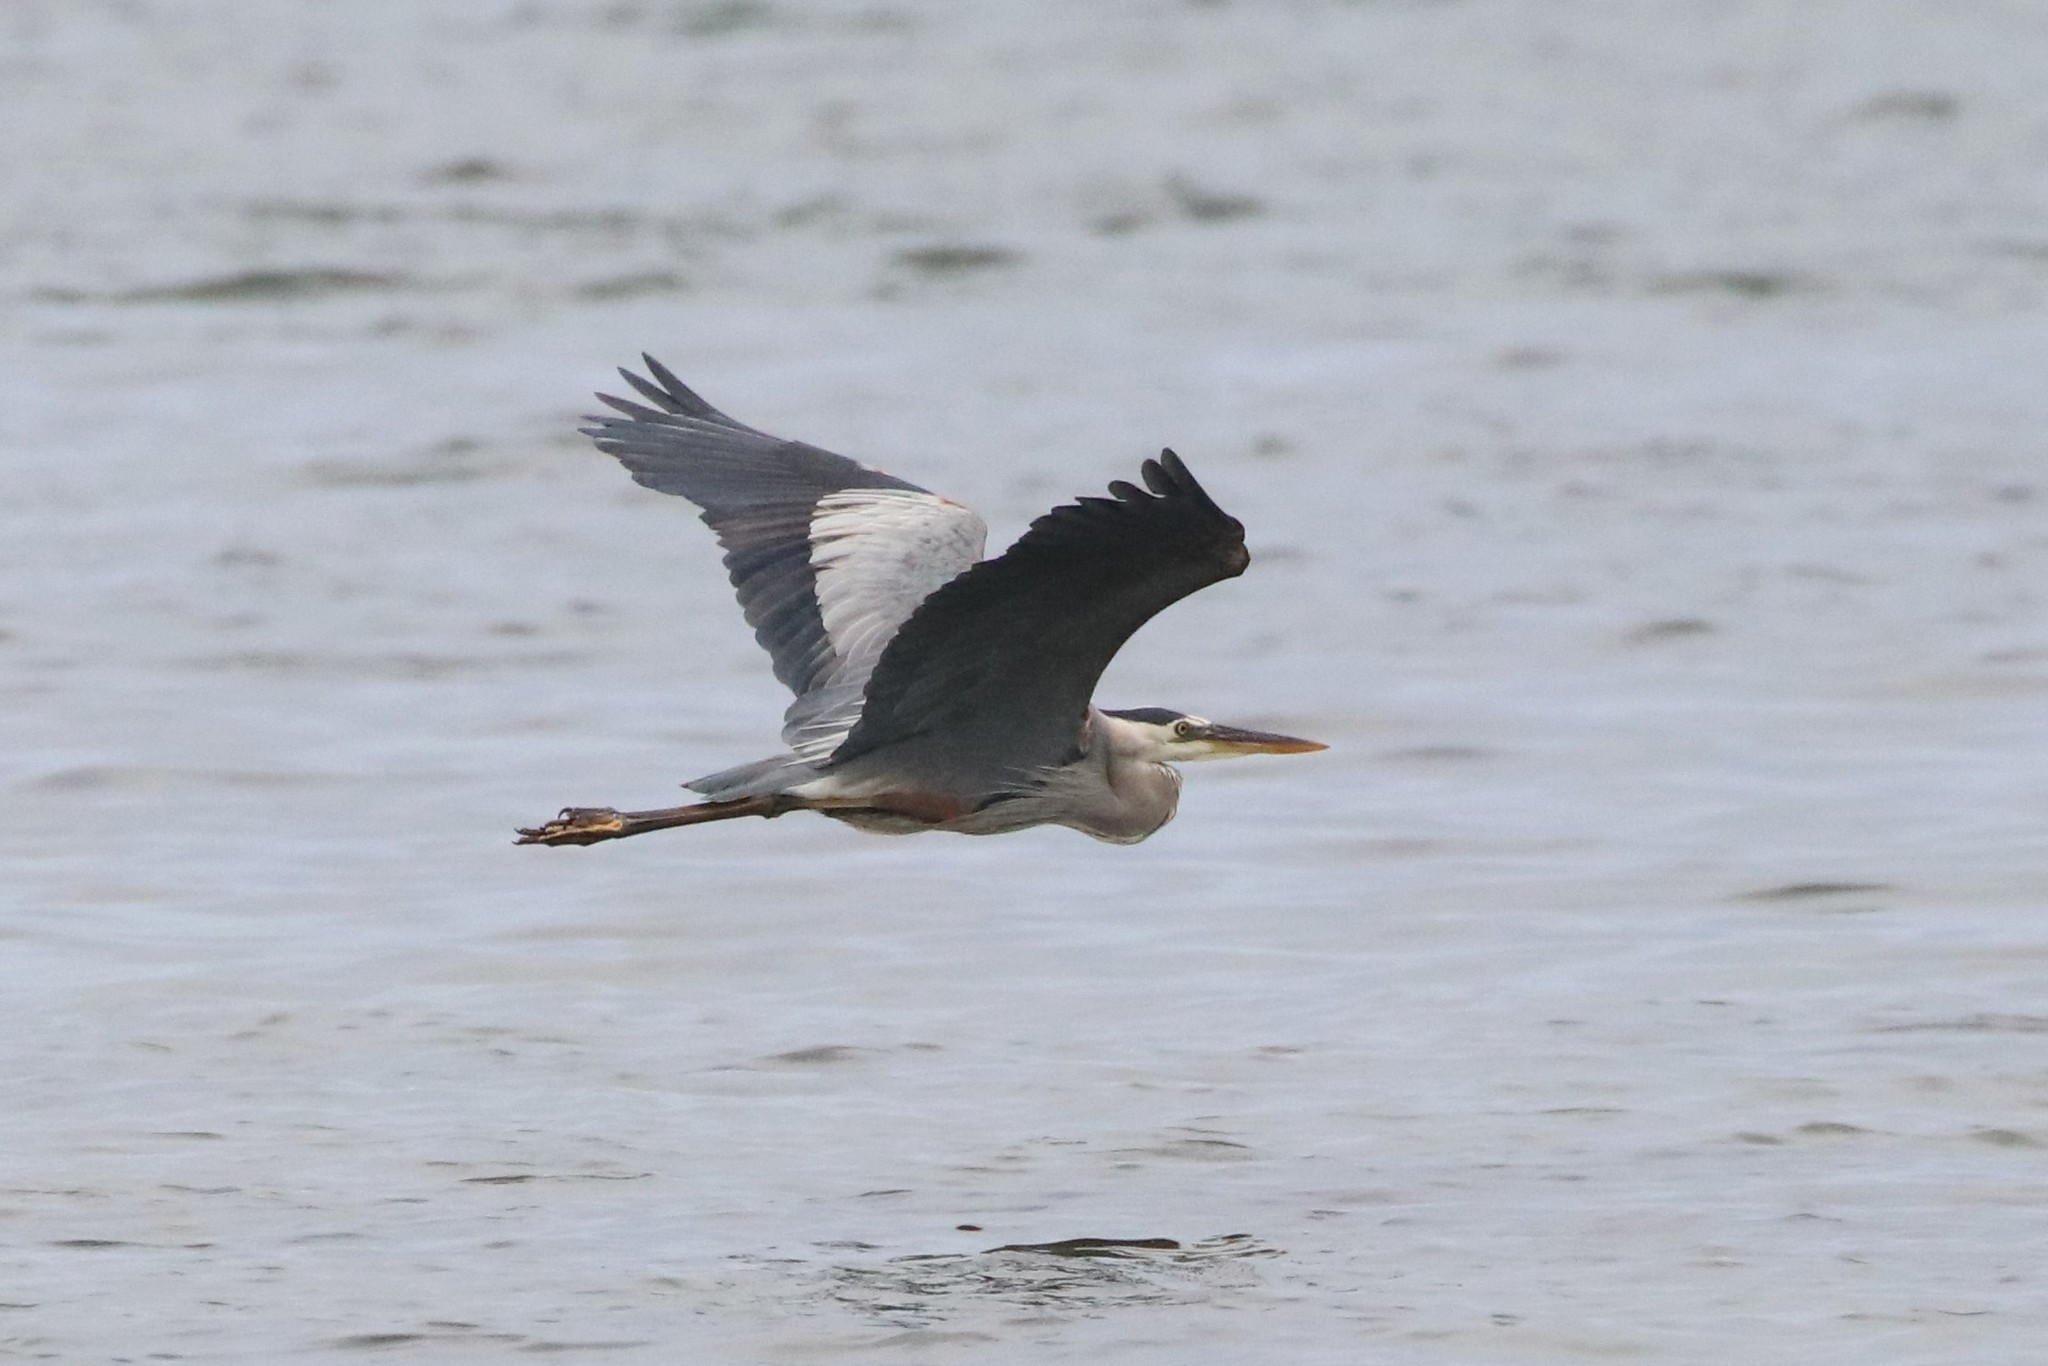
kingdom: Animalia
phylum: Chordata
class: Aves
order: Pelecaniformes
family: Ardeidae
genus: Ardea
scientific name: Ardea herodias
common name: Great blue heron
